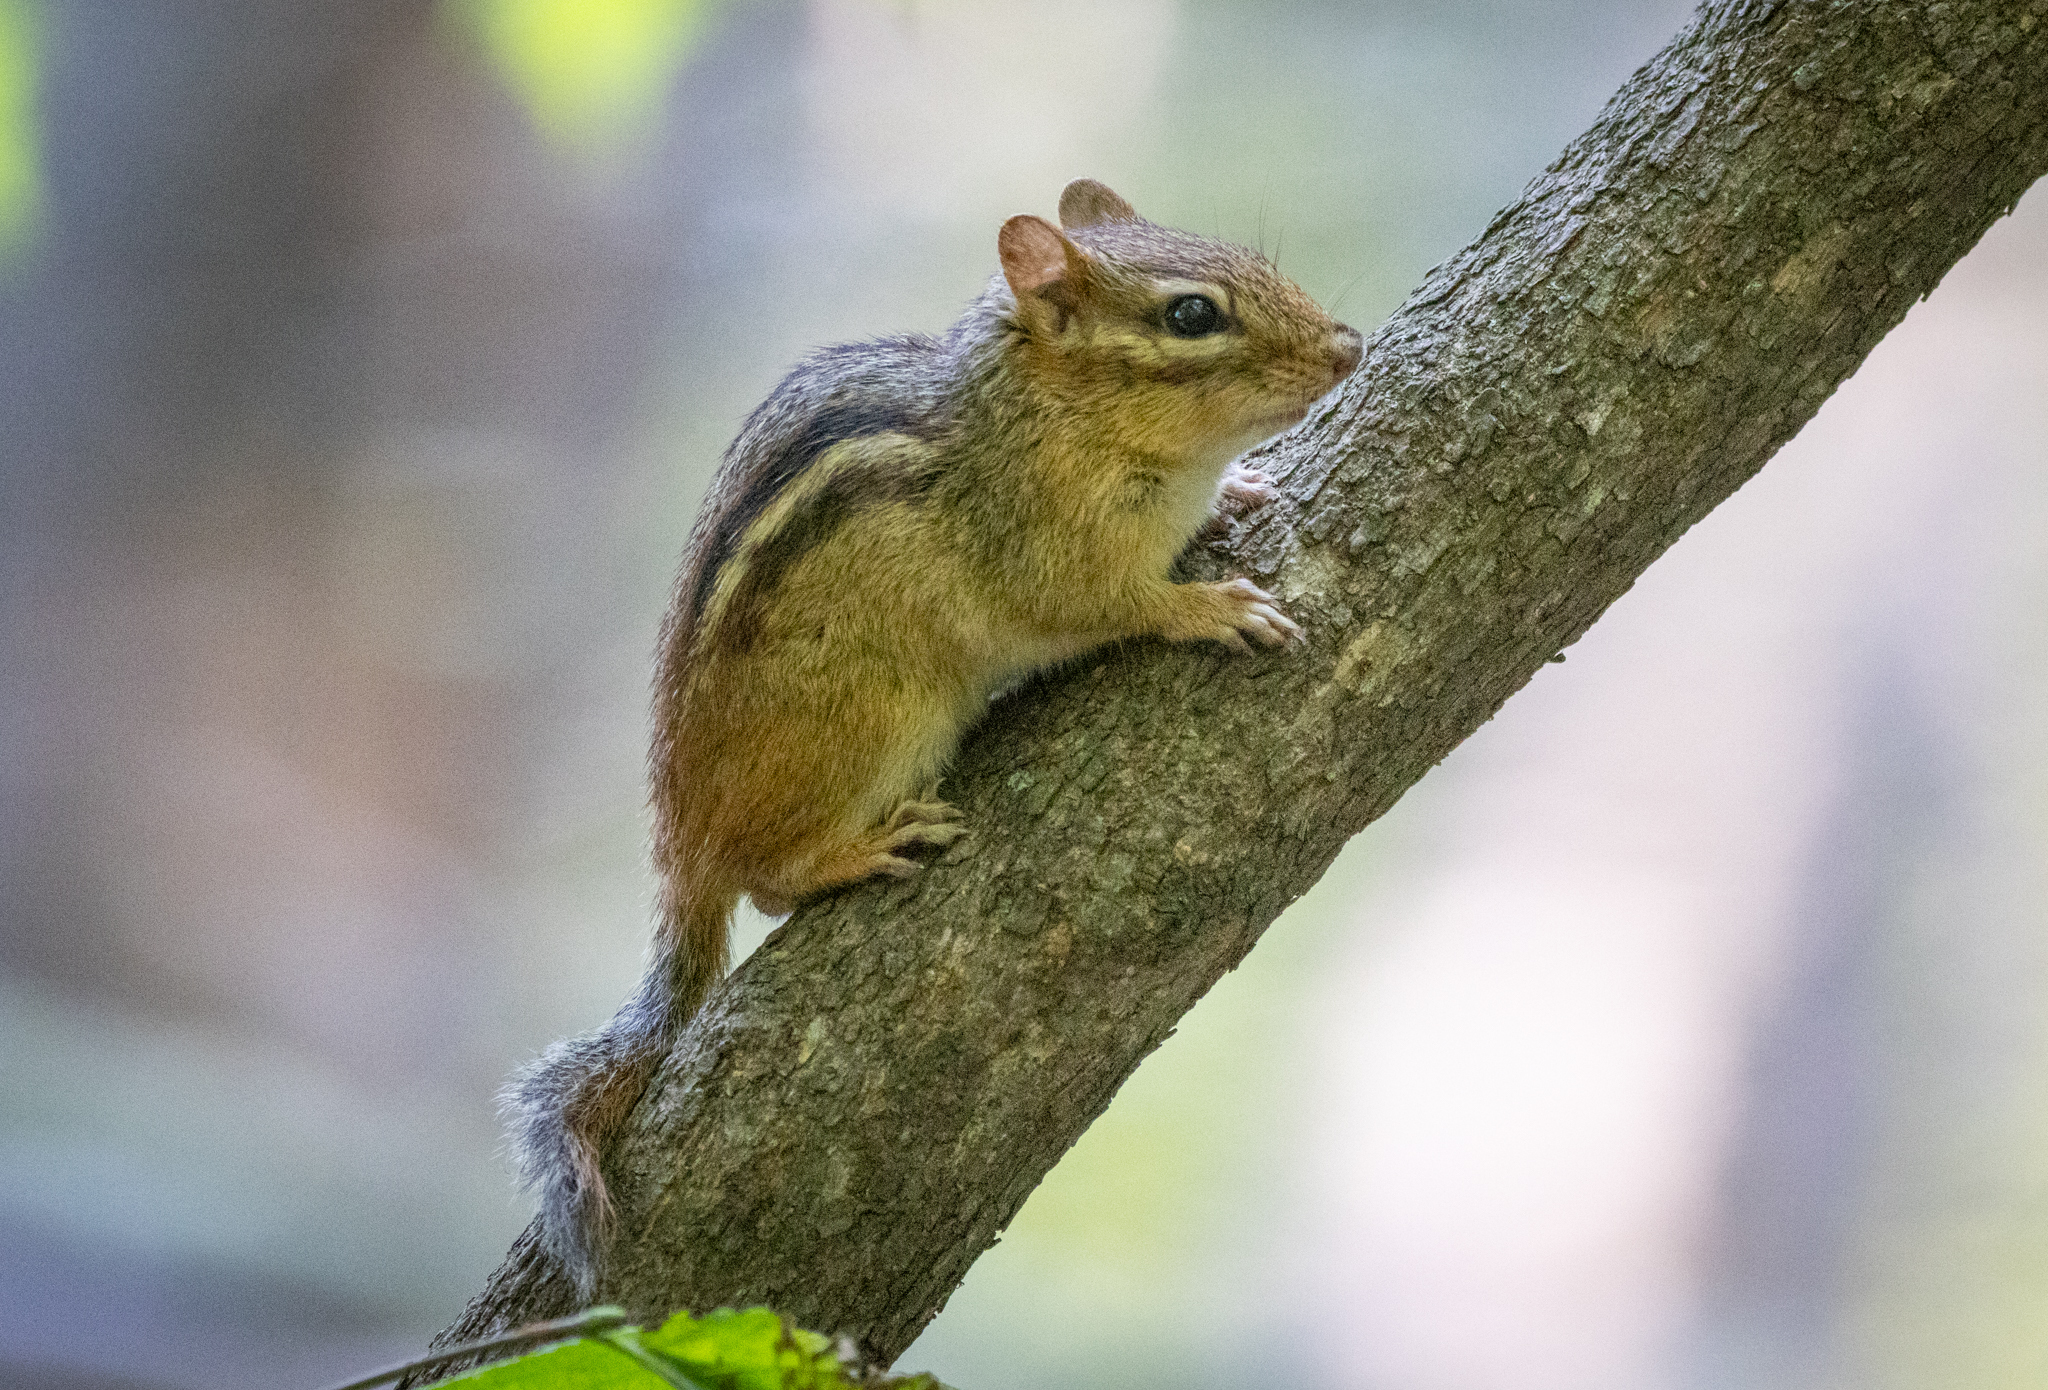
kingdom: Animalia
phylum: Chordata
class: Mammalia
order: Rodentia
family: Sciuridae
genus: Tamias
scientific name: Tamias striatus
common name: Eastern chipmunk
